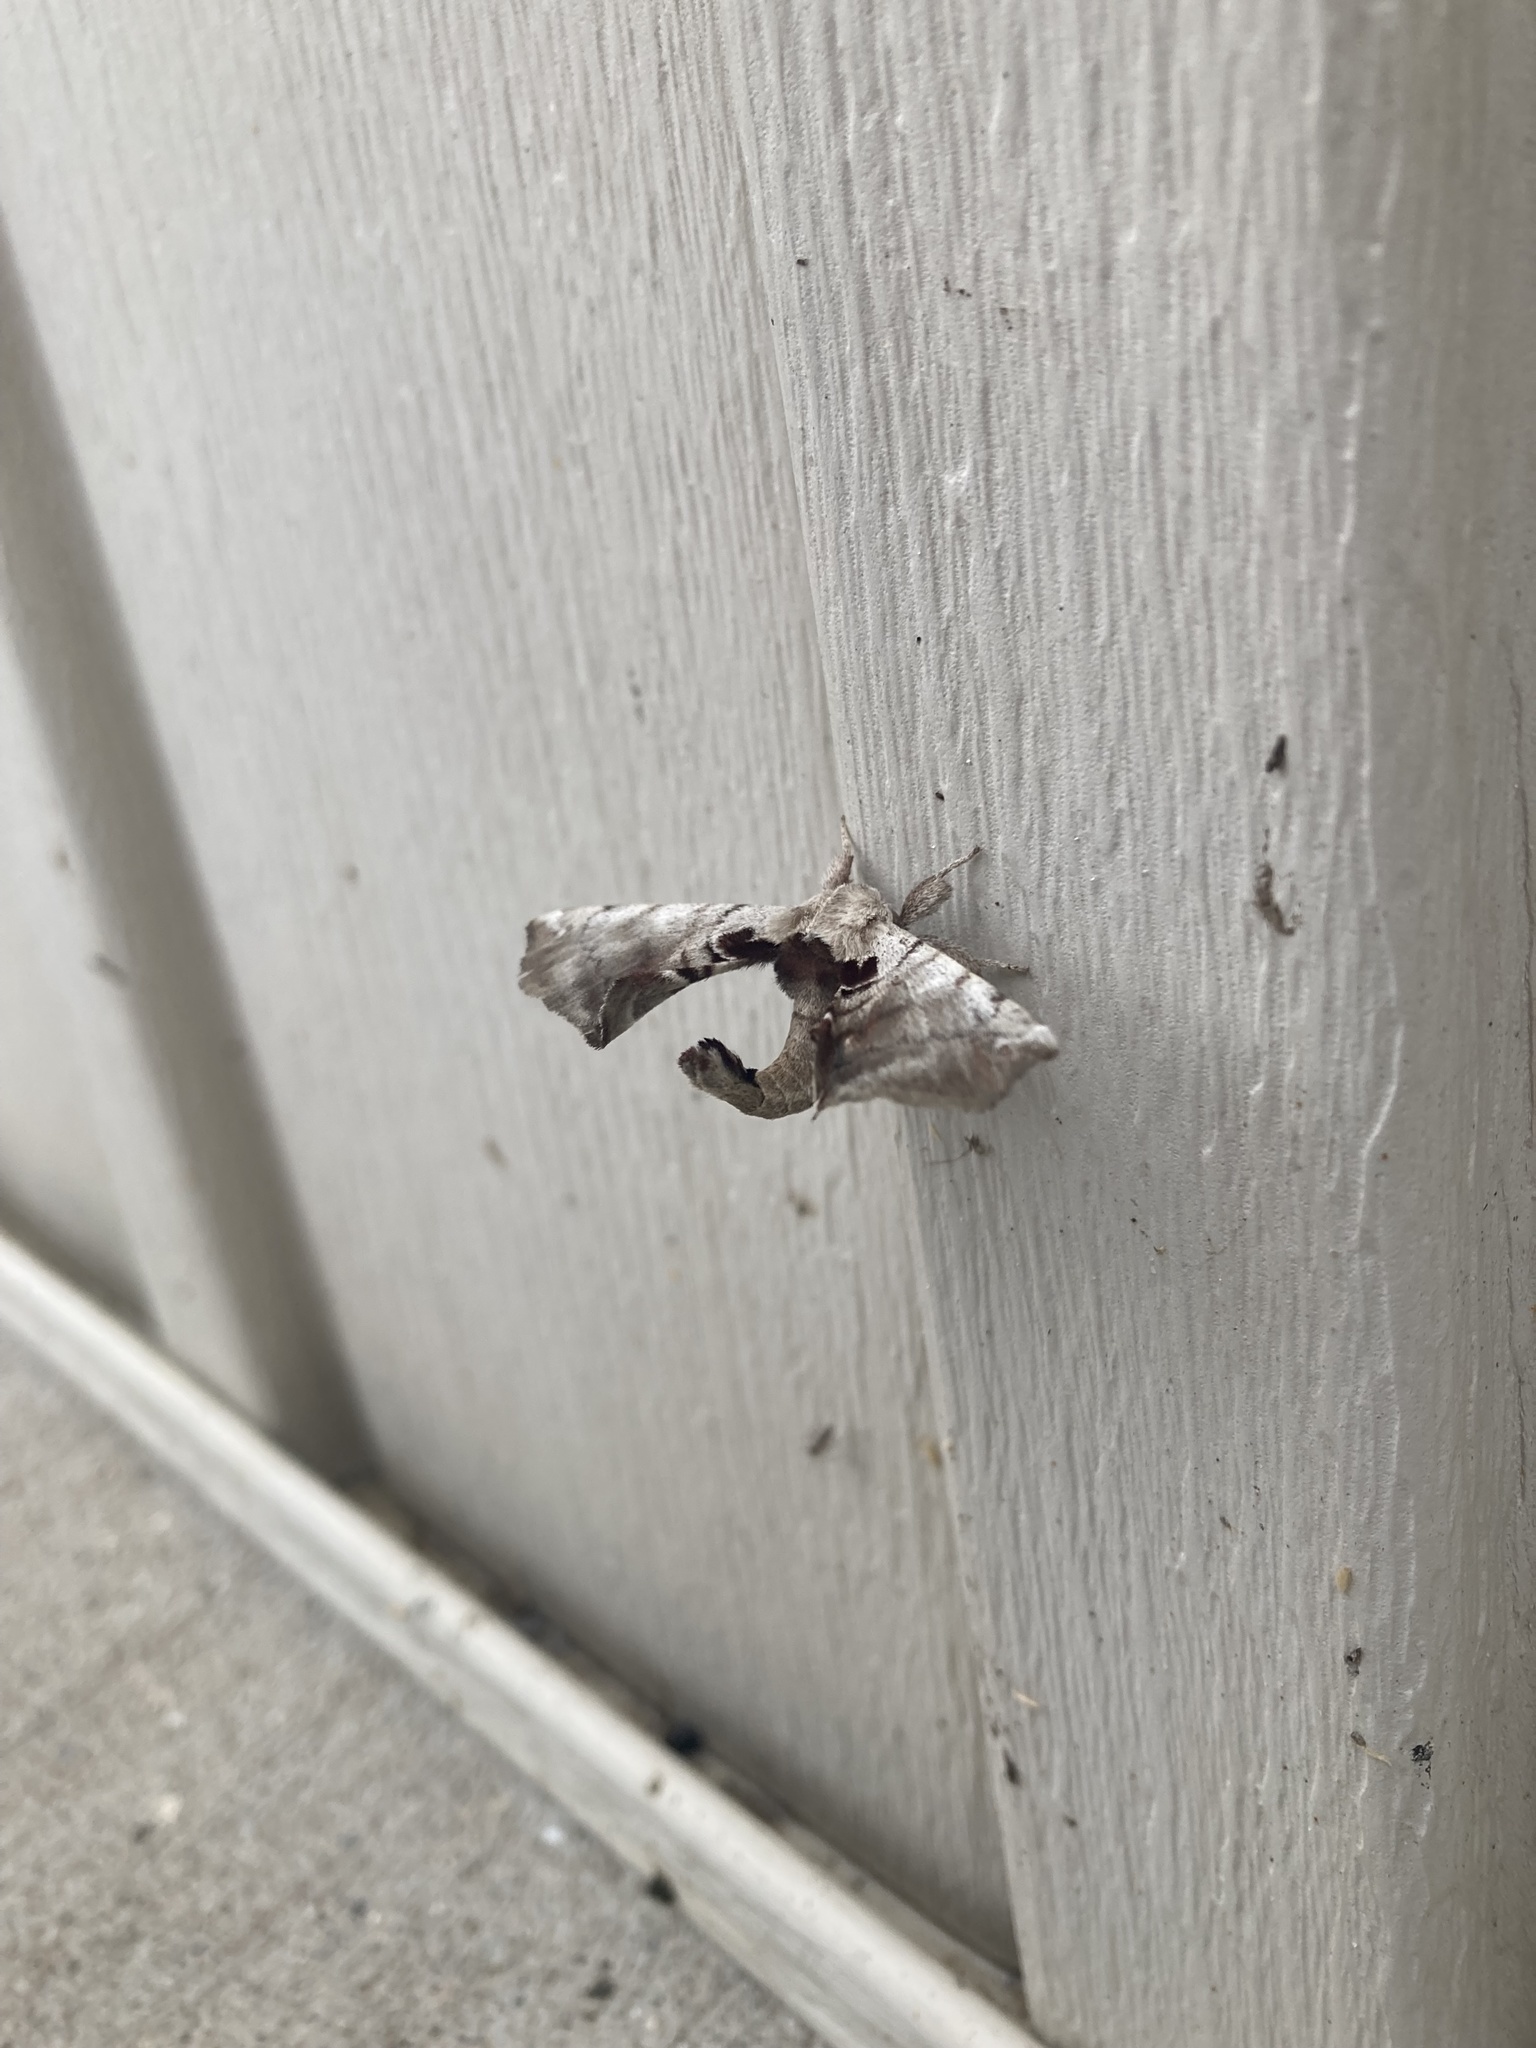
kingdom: Animalia
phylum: Arthropoda
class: Insecta
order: Lepidoptera
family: Apatelodidae
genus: Hygrochroa
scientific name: Hygrochroa Apatelodes torrefacta
